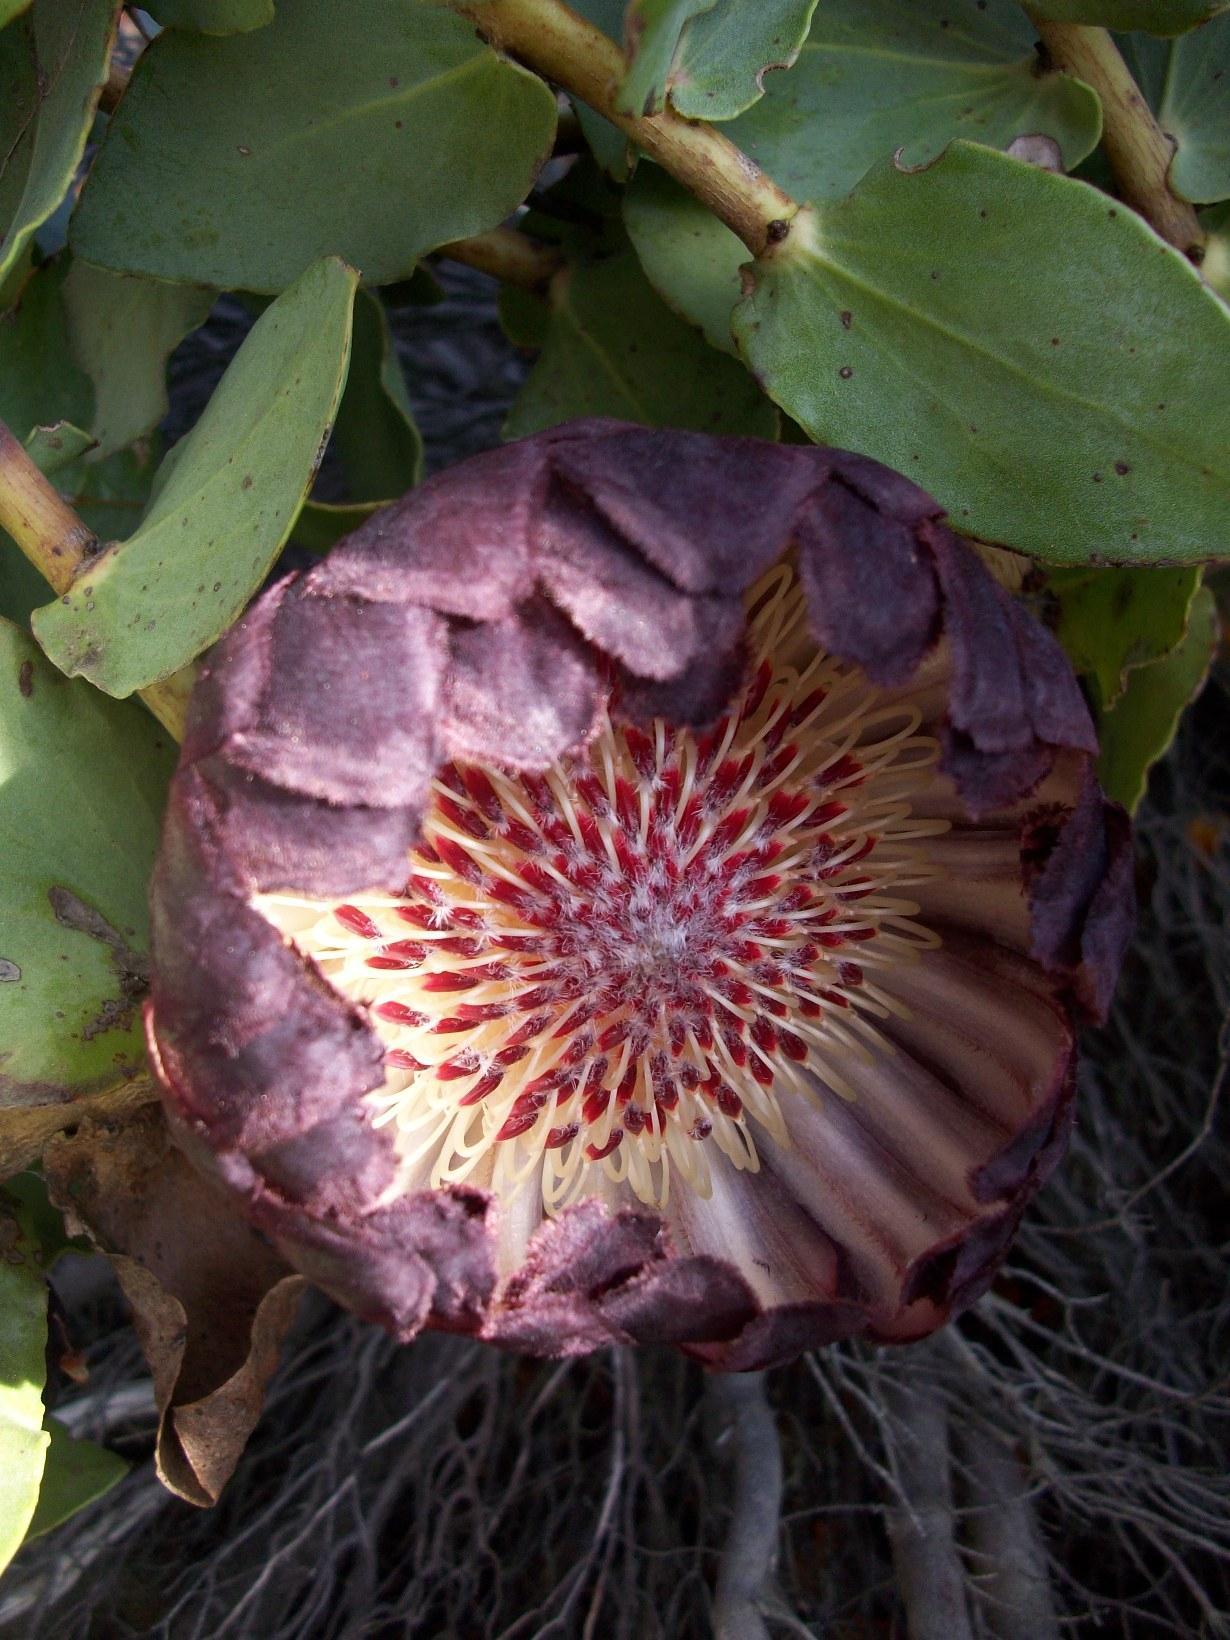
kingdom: Plantae
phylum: Tracheophyta
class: Magnoliopsida
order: Proteales
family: Proteaceae
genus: Protea
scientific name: Protea amplexicaulis
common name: Clasping-leaf sugarbush
